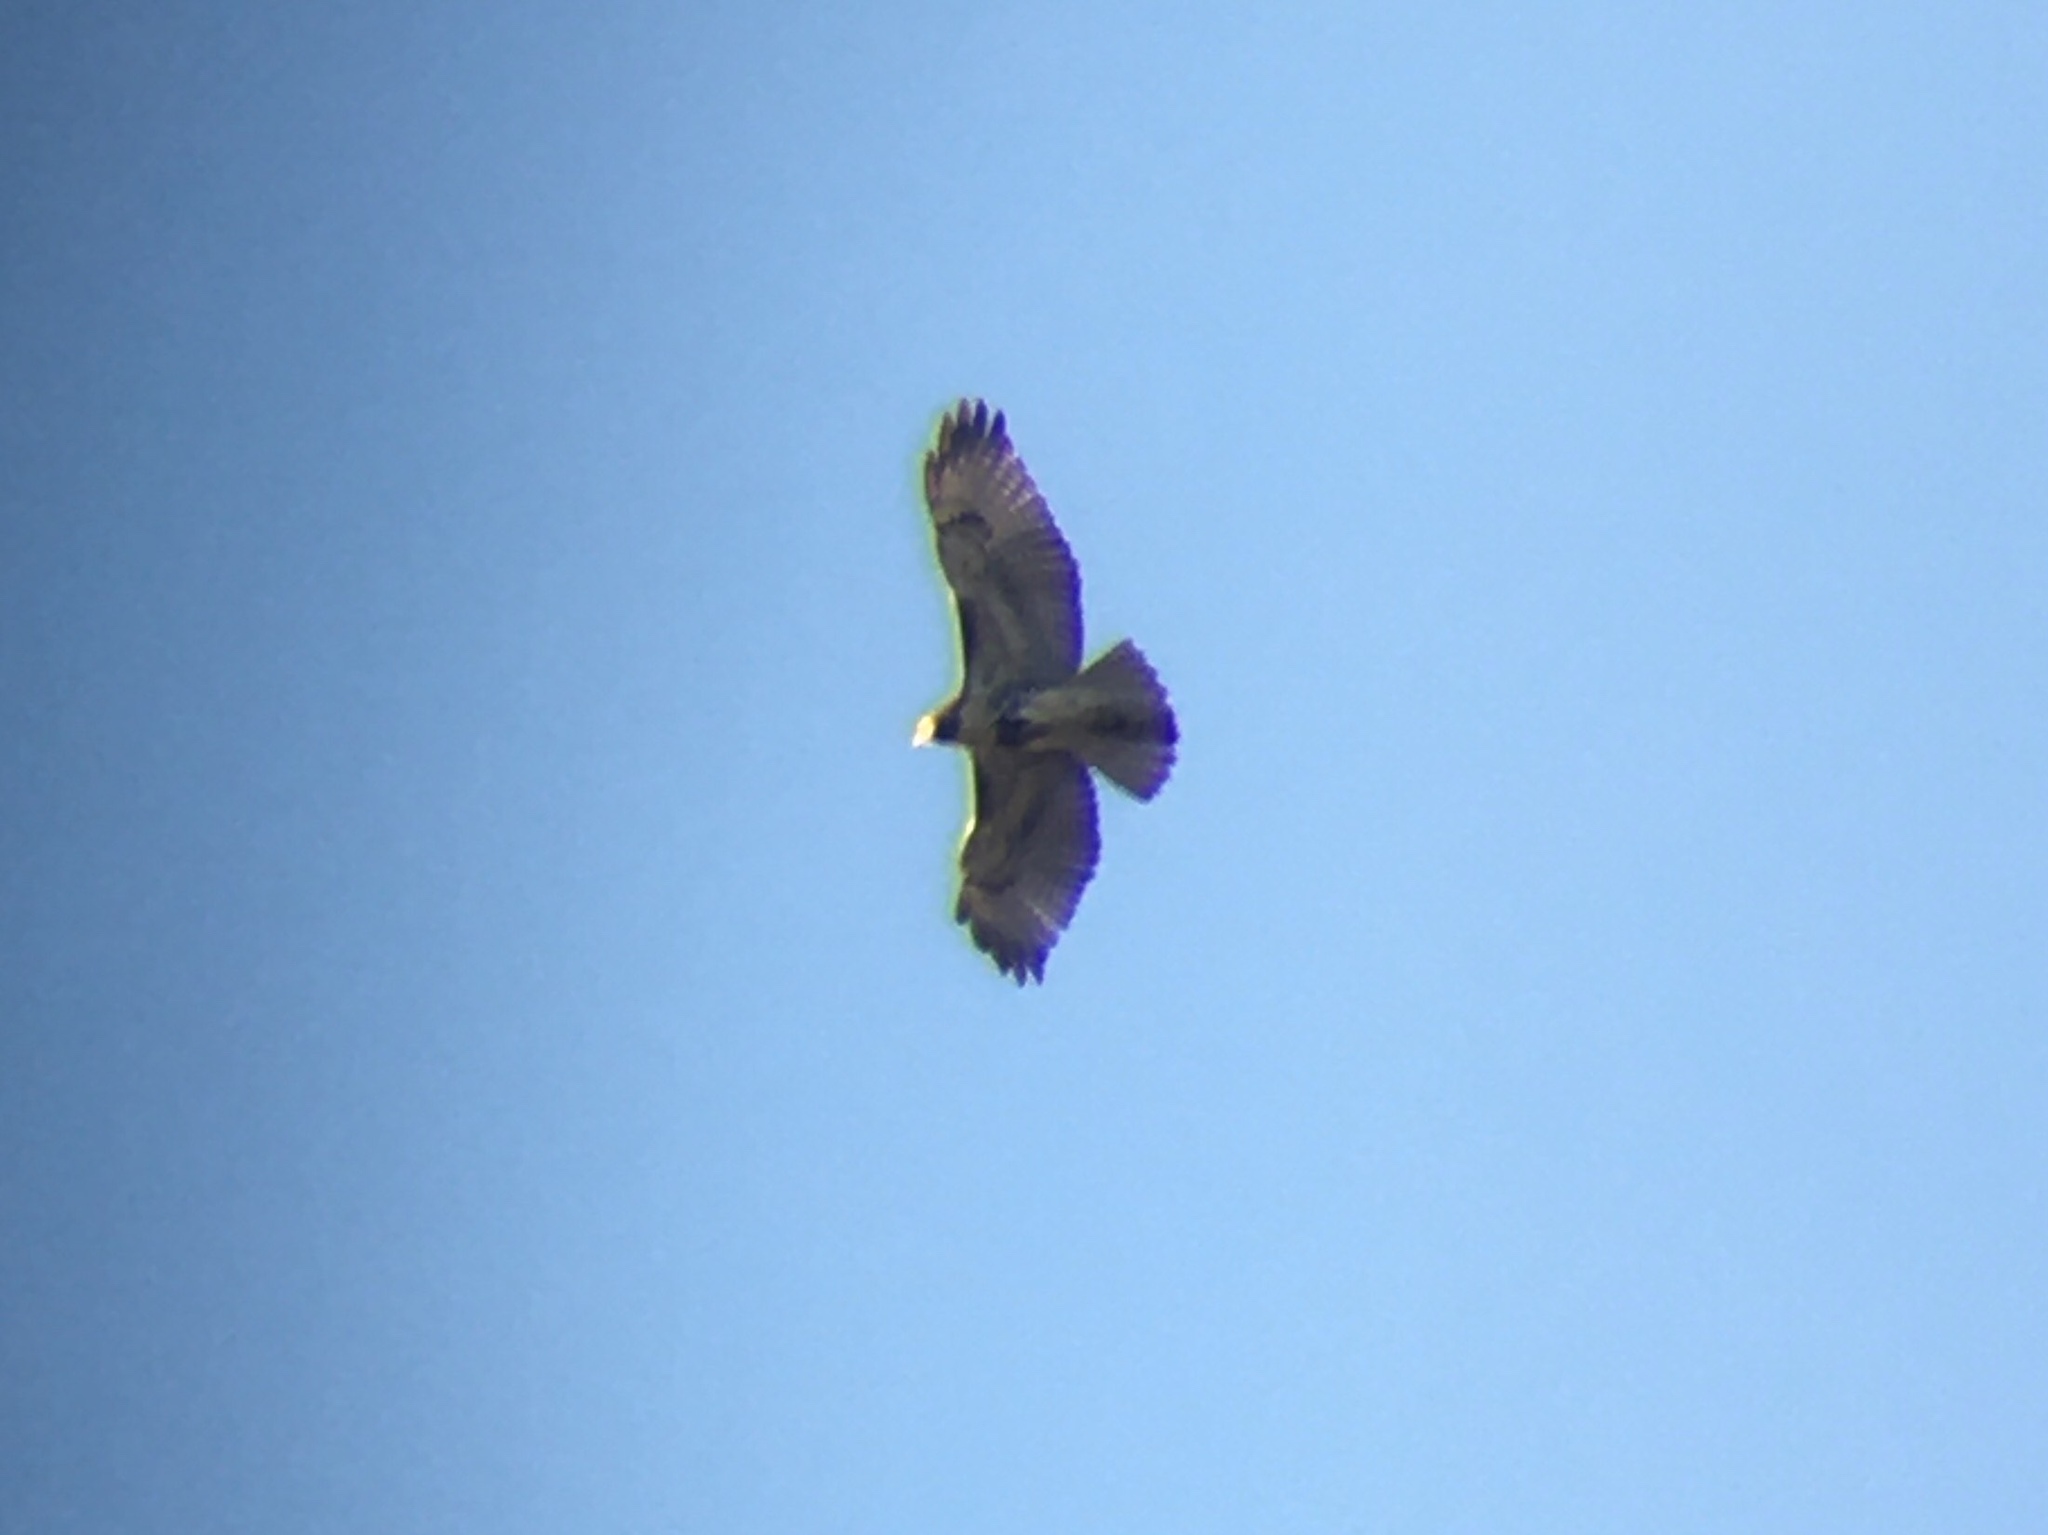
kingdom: Animalia
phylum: Chordata
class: Aves
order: Accipitriformes
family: Accipitridae
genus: Buteo
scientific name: Buteo jamaicensis
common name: Red-tailed hawk
